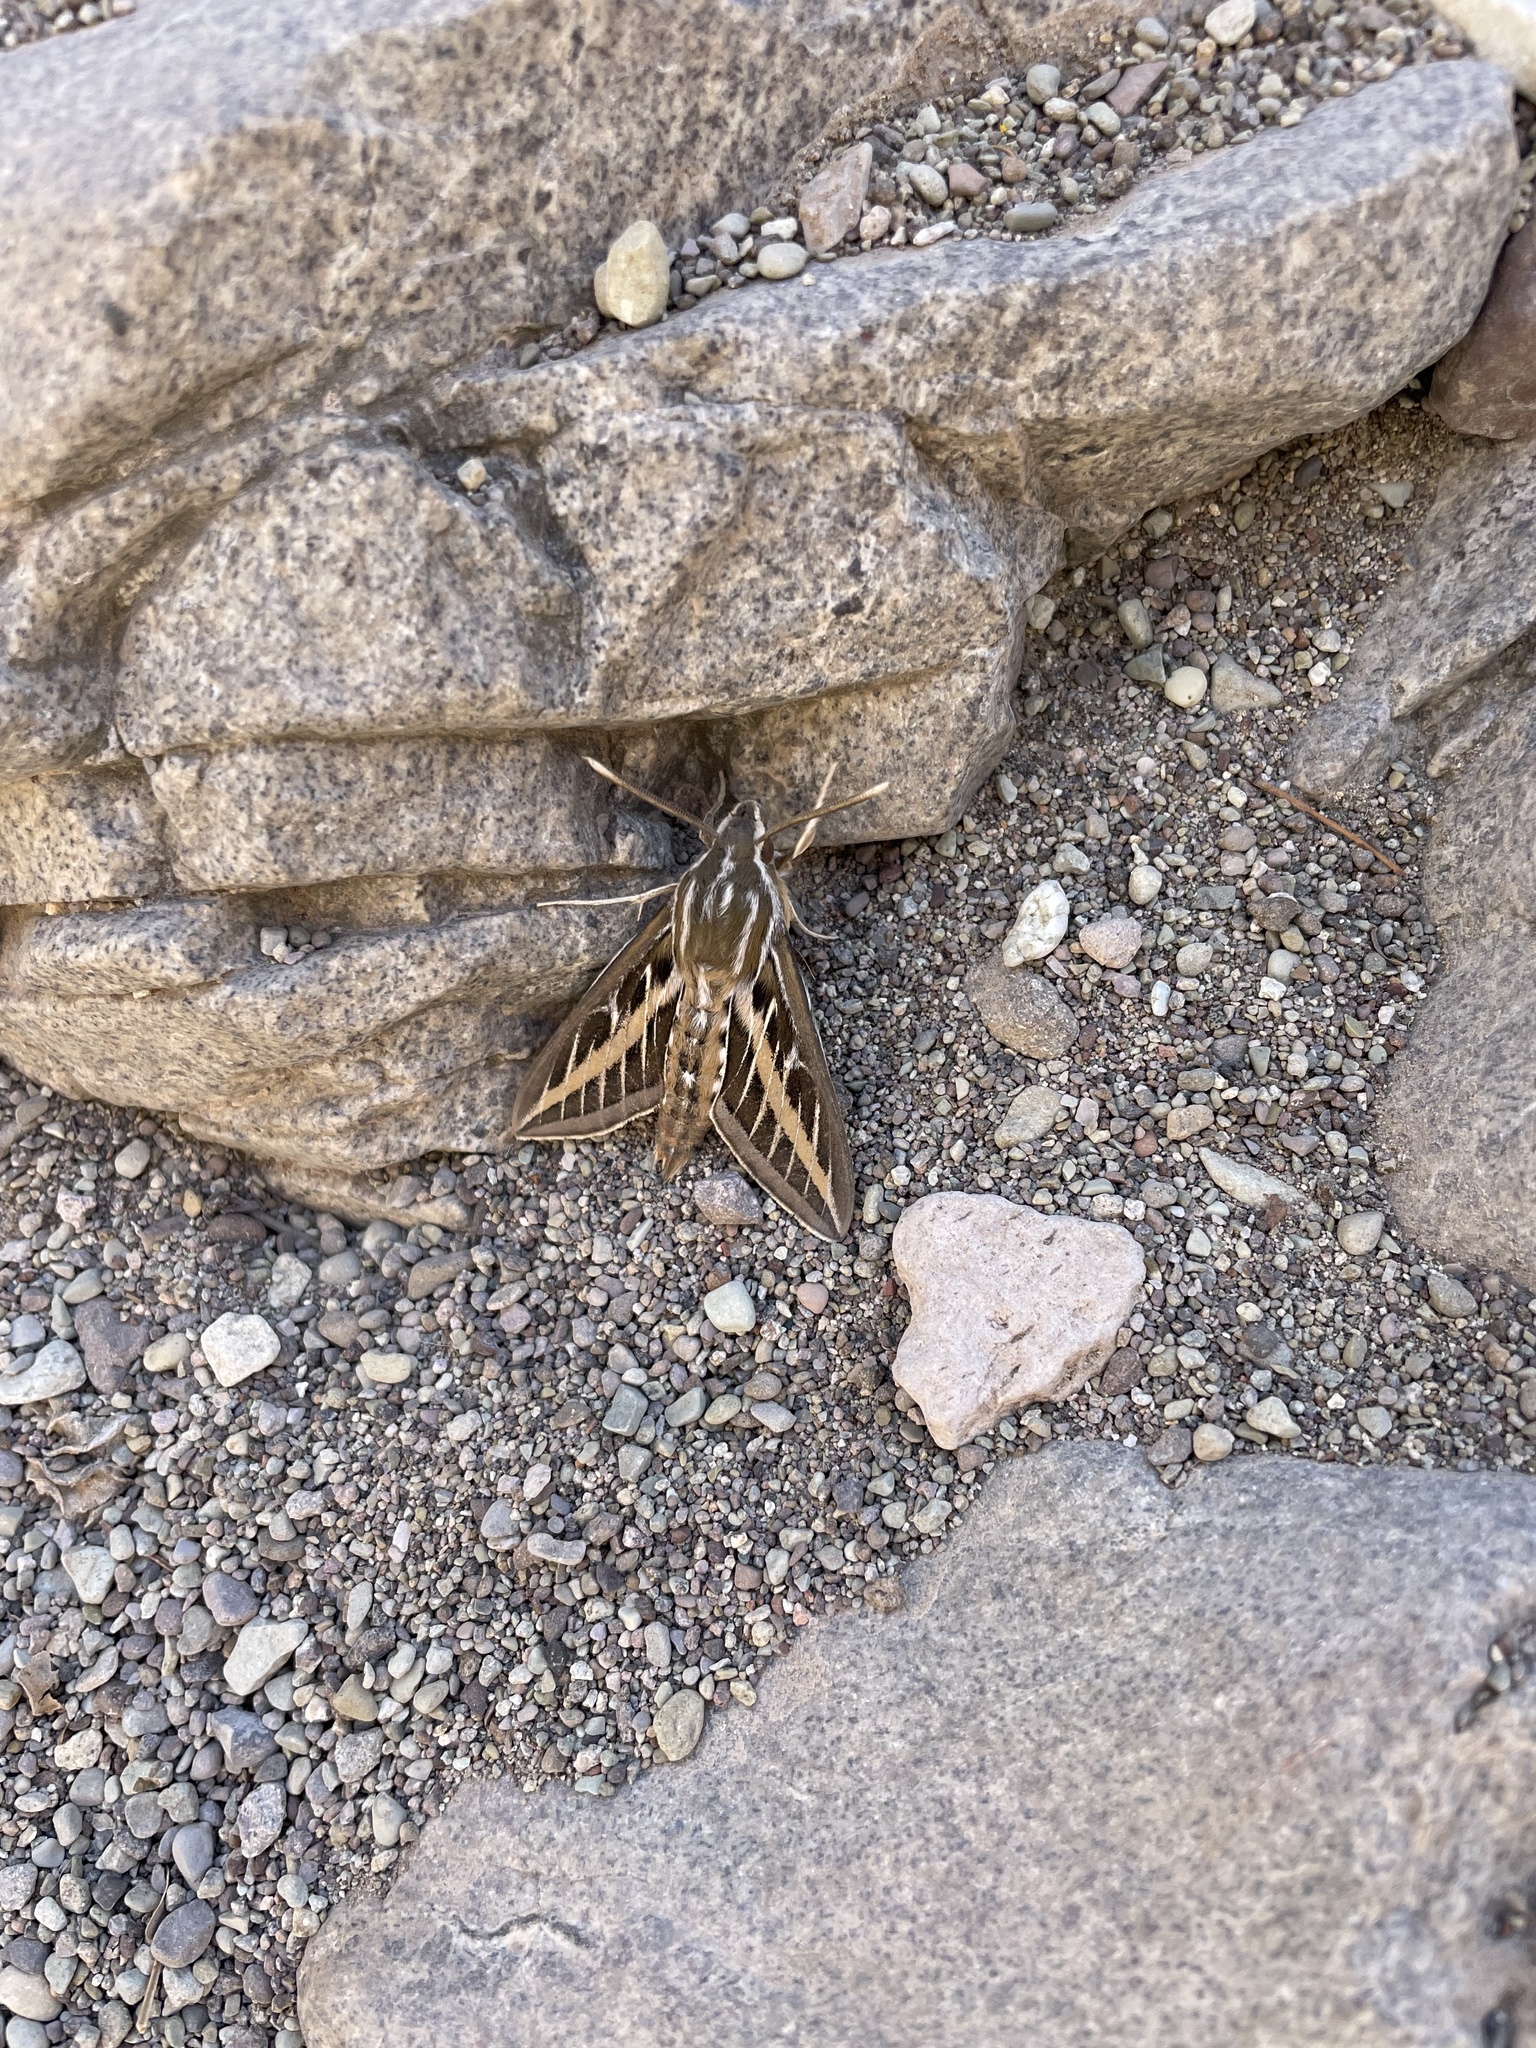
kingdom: Animalia
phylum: Arthropoda
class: Insecta
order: Lepidoptera
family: Sphingidae
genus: Hyles
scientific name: Hyles lineata
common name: White-lined sphinx
